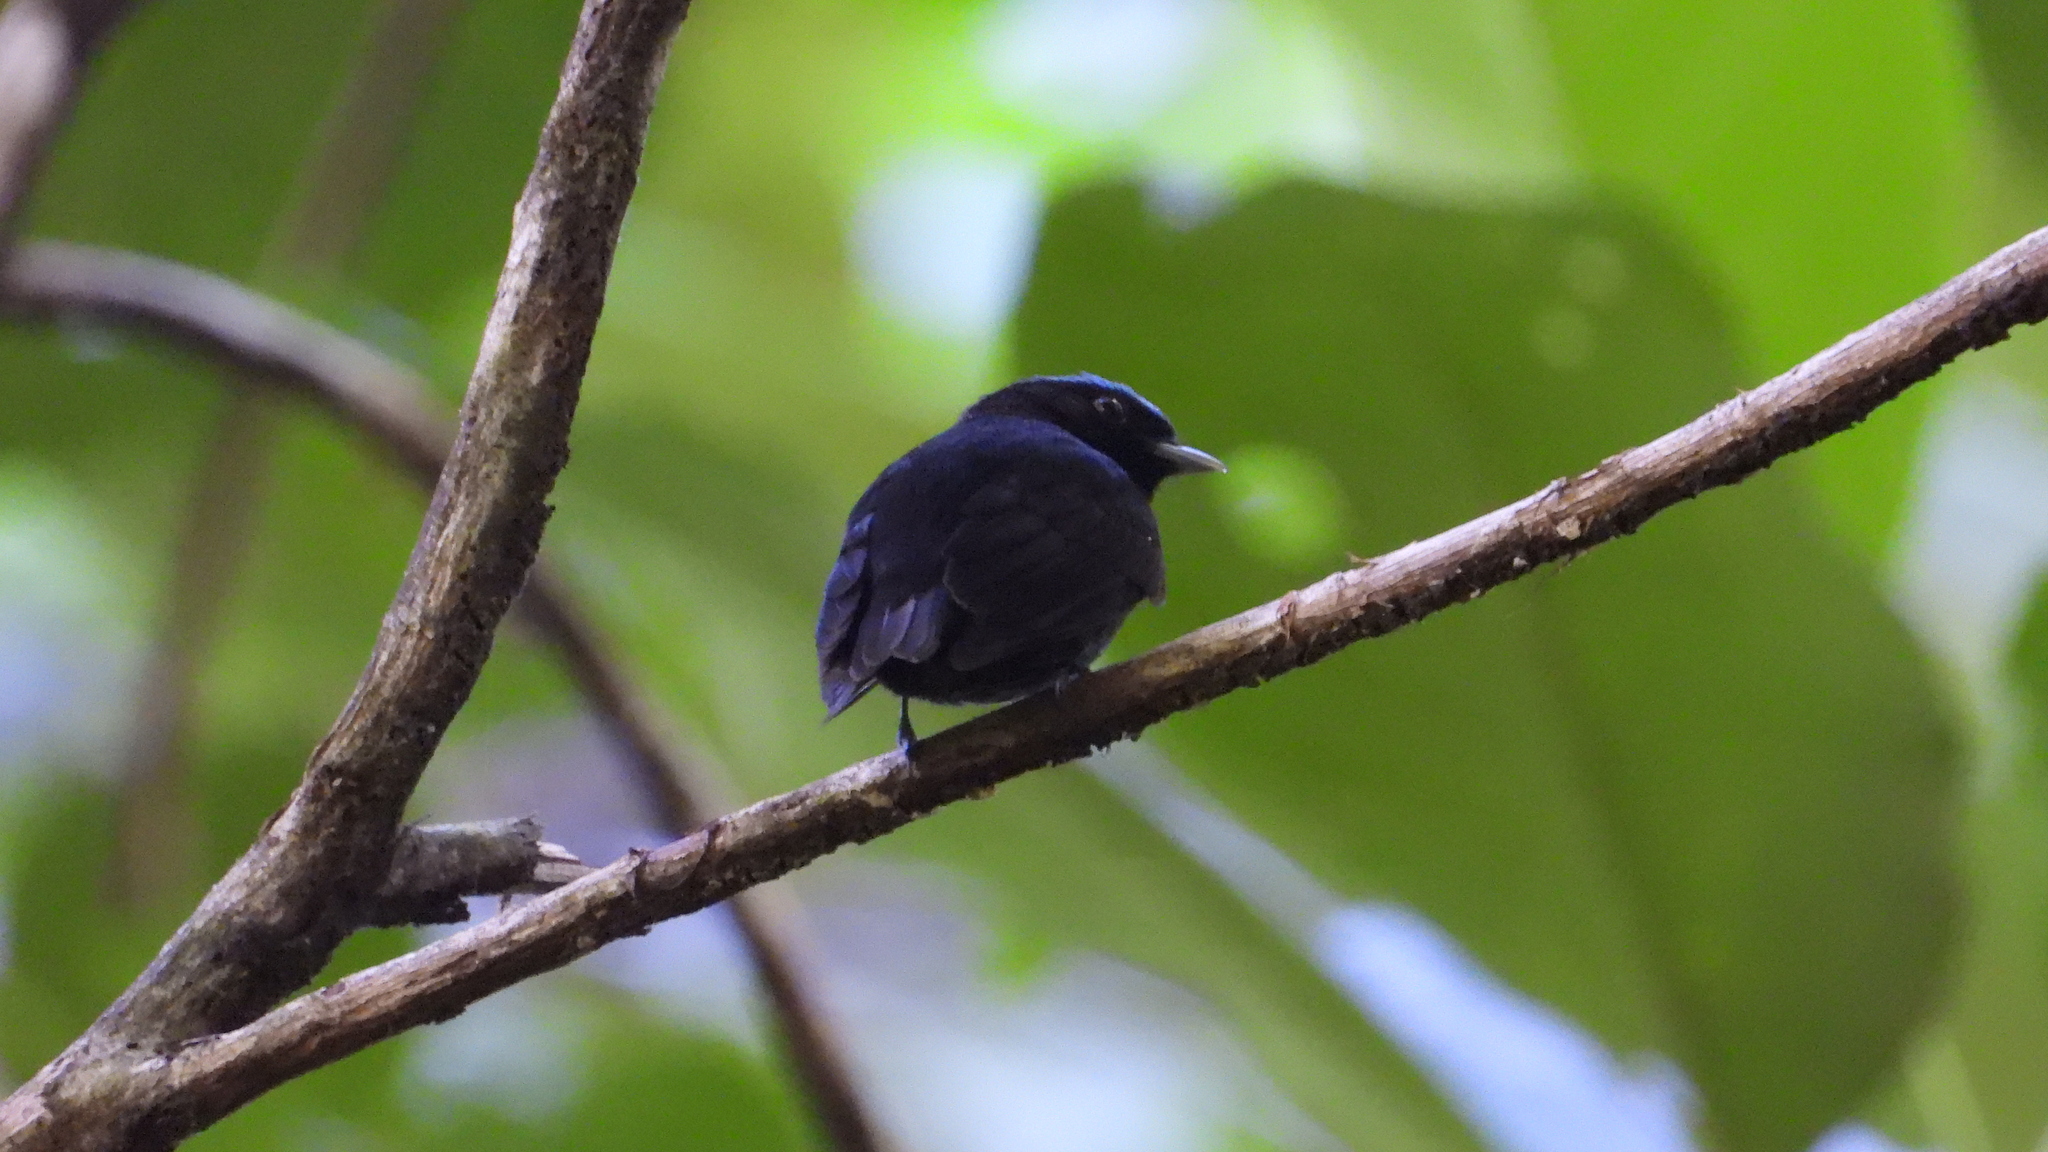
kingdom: Animalia
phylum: Chordata
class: Aves
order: Passeriformes
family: Pipridae
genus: Lepidothrix
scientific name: Lepidothrix coronata
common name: Blue-crowned manakin
